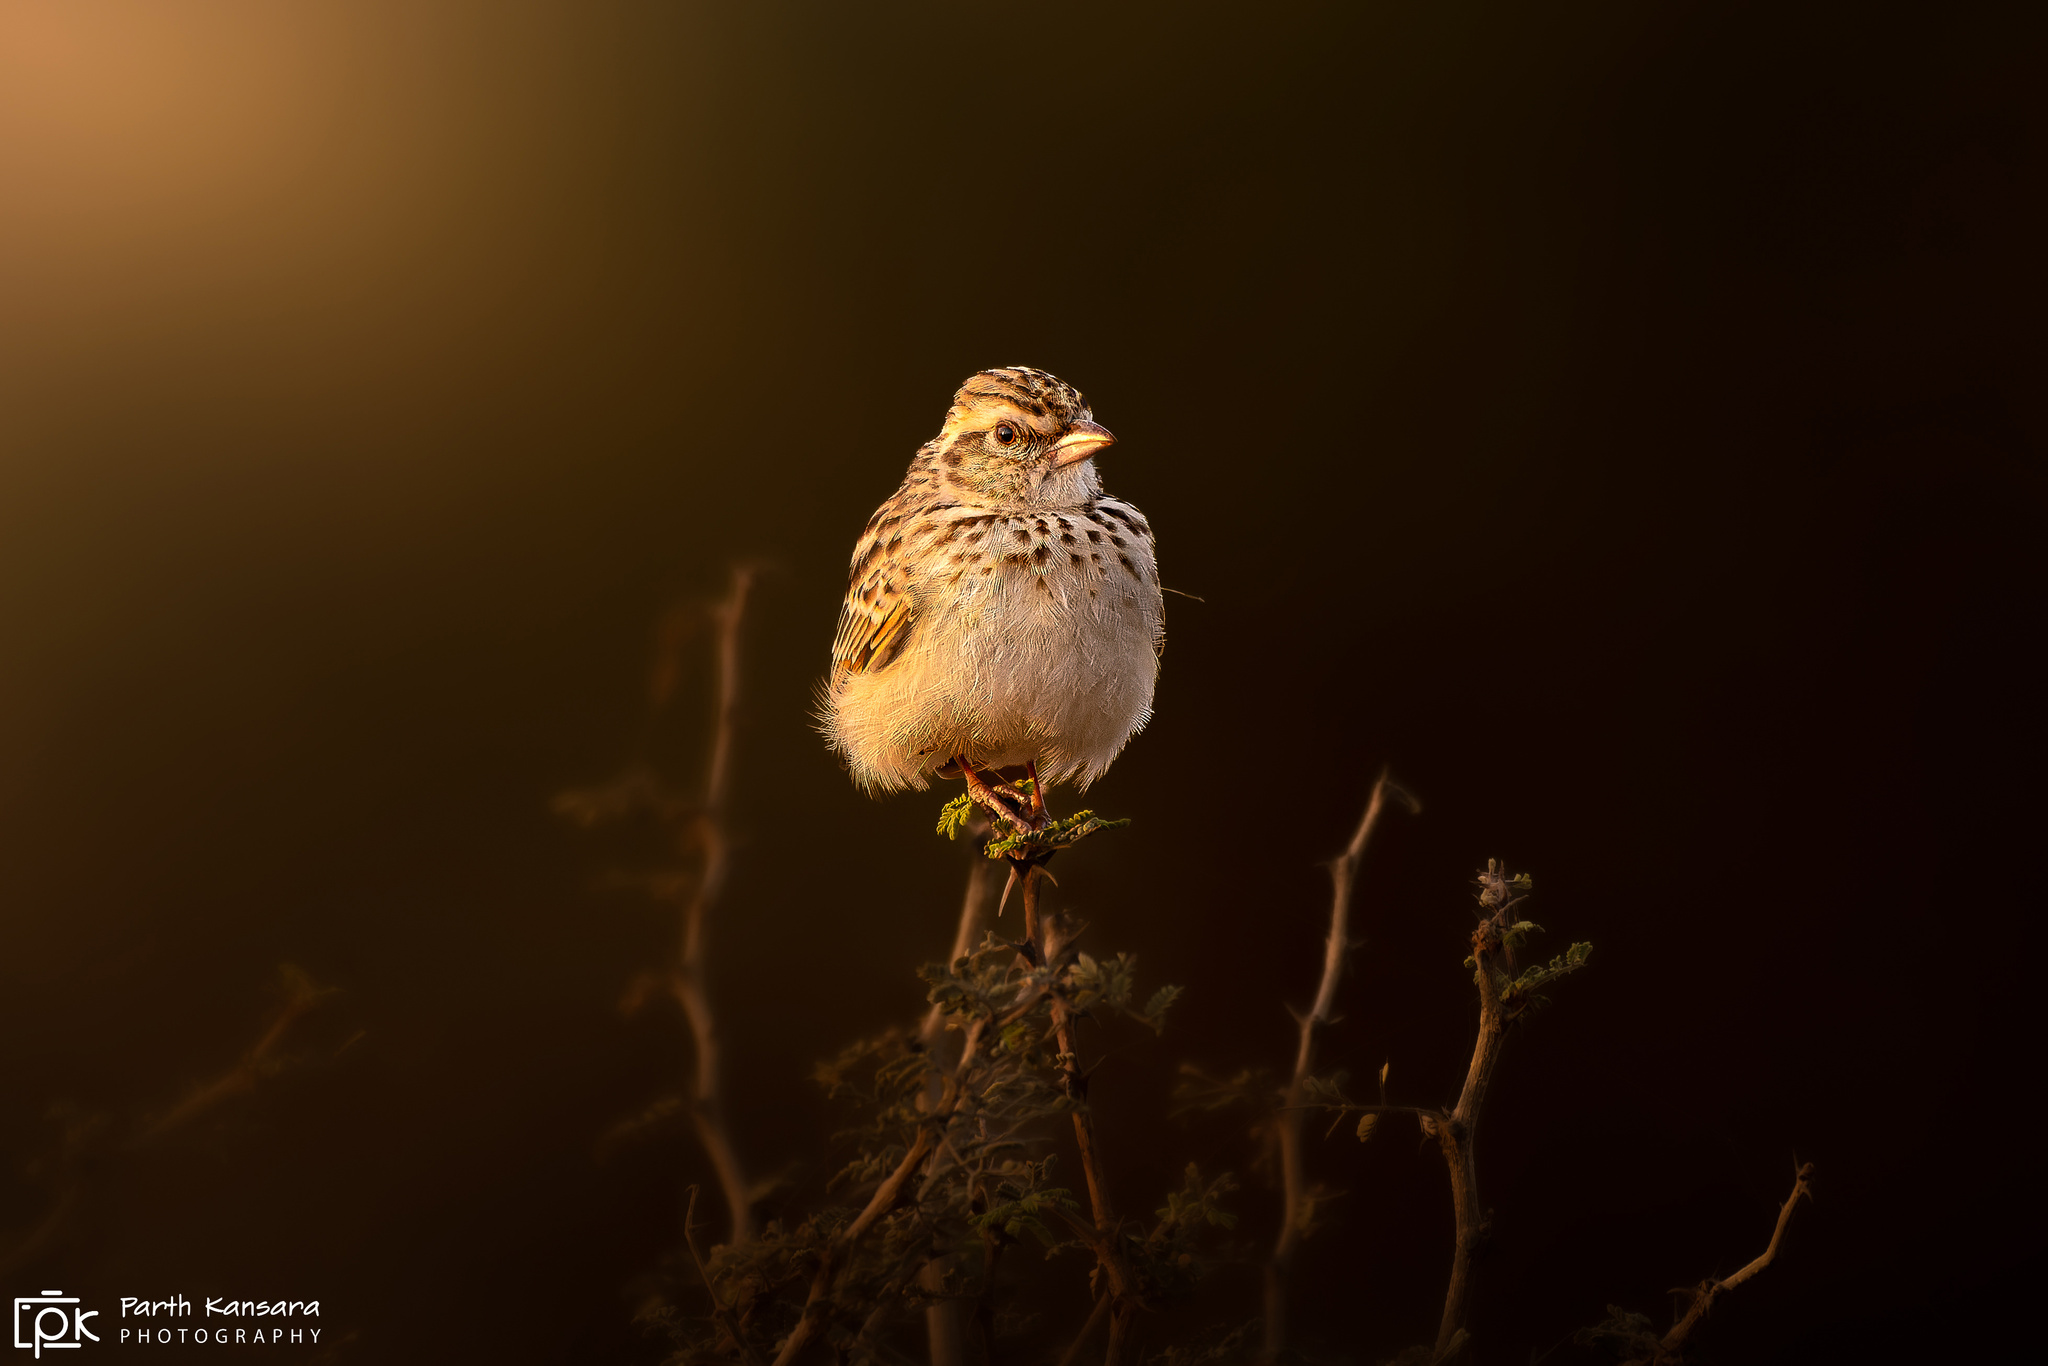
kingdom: Animalia
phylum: Chordata
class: Aves
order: Passeriformes
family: Alaudidae
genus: Mirafra
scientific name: Mirafra erythroptera
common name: Indian bush lark
